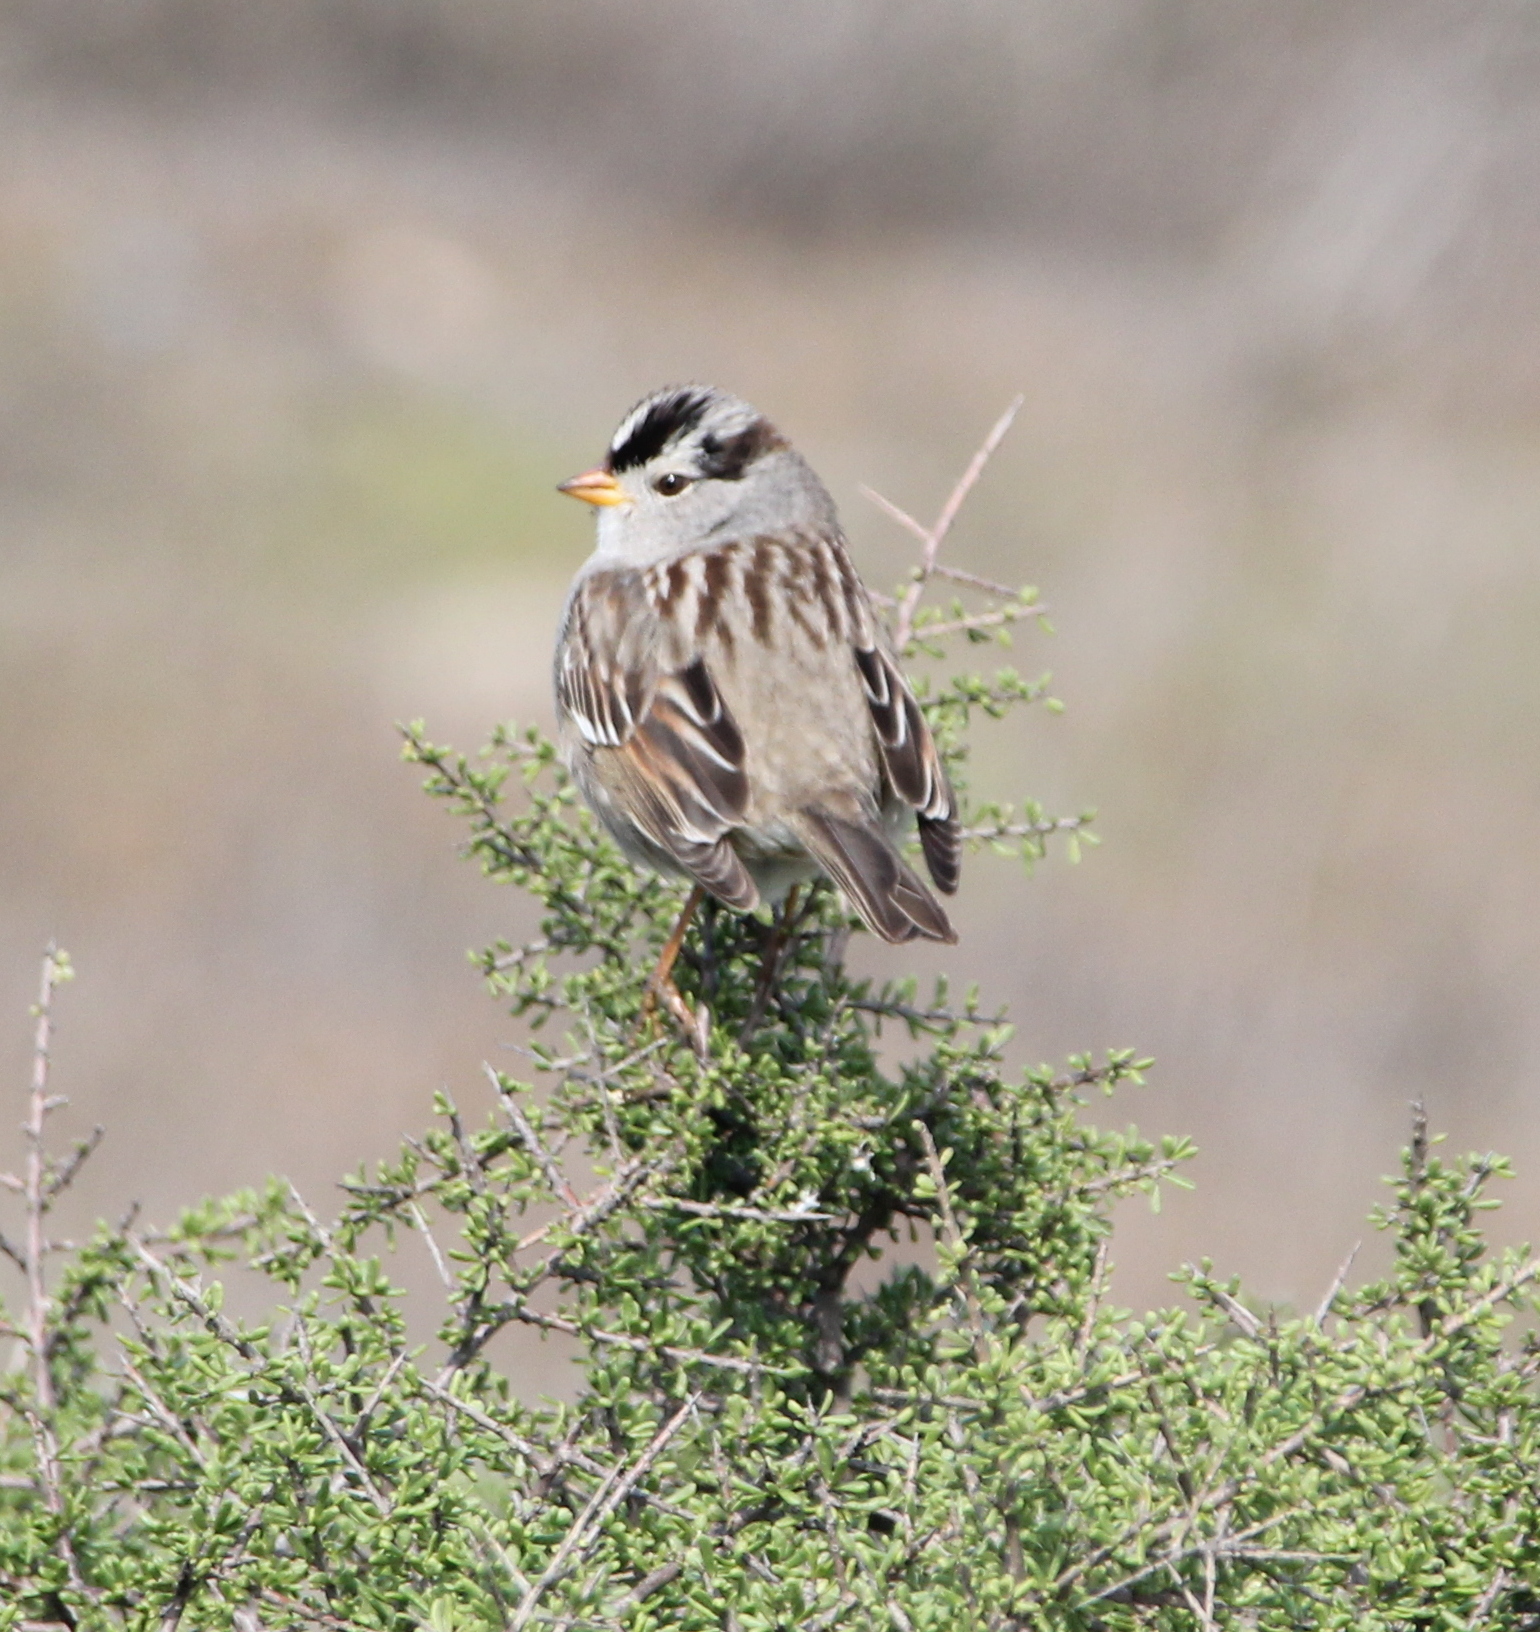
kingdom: Animalia
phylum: Chordata
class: Aves
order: Passeriformes
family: Passerellidae
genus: Zonotrichia
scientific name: Zonotrichia leucophrys
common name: White-crowned sparrow
